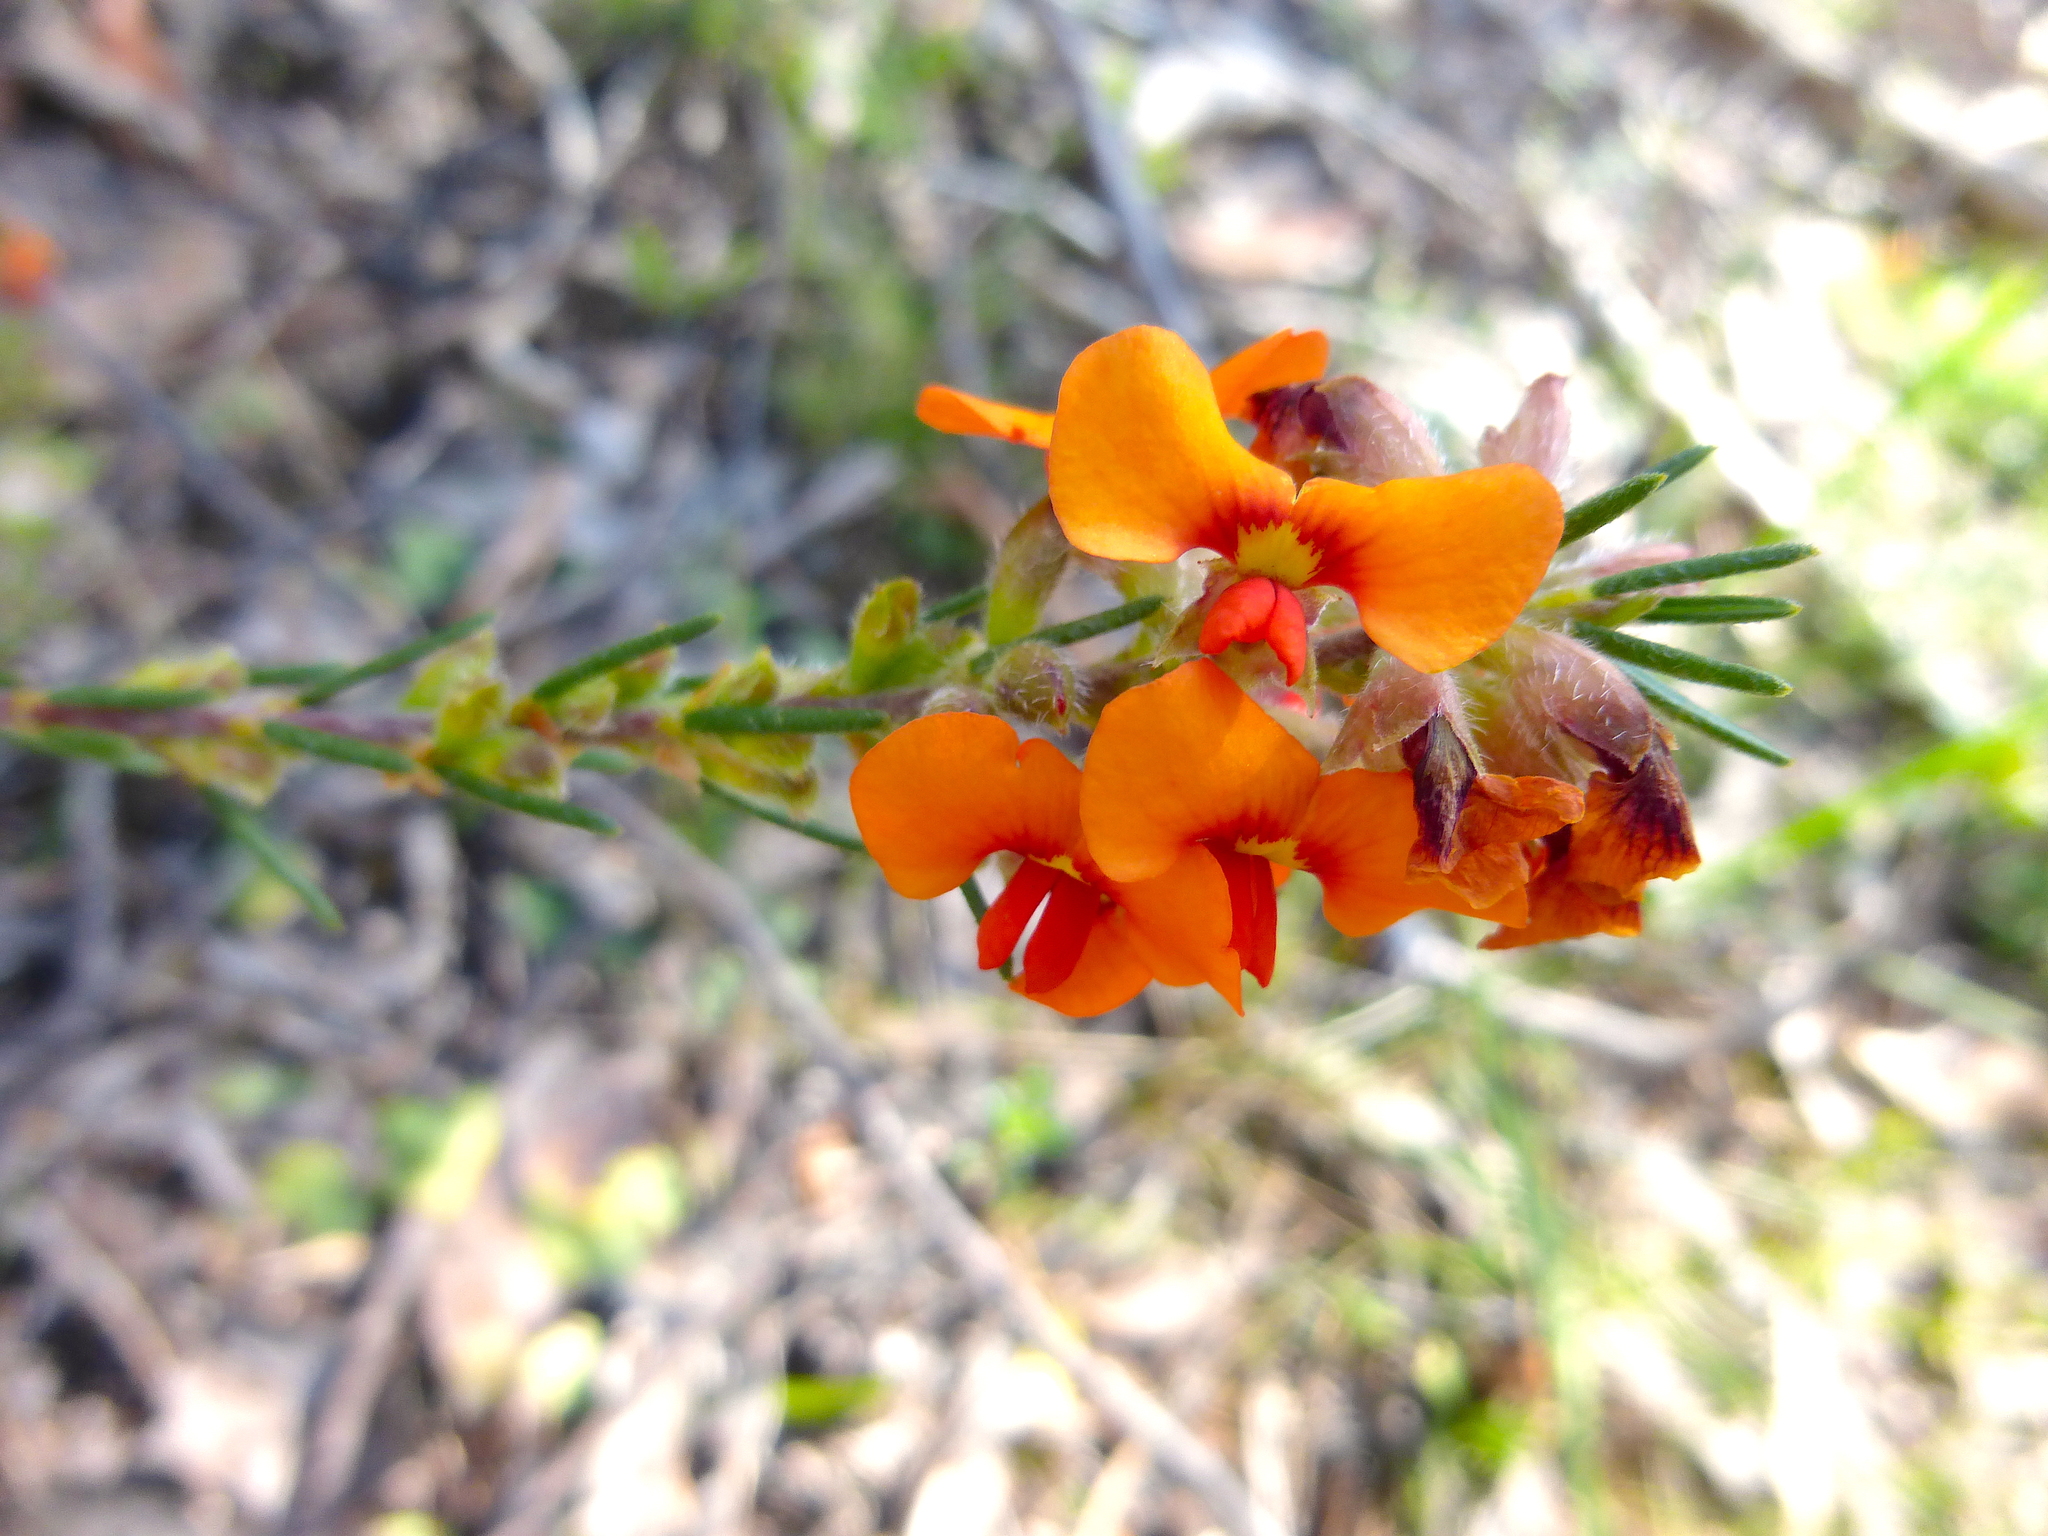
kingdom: Plantae
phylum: Tracheophyta
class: Magnoliopsida
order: Fabales
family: Fabaceae
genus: Dillwynia
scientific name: Dillwynia sericea
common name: Showy parrot-pea
